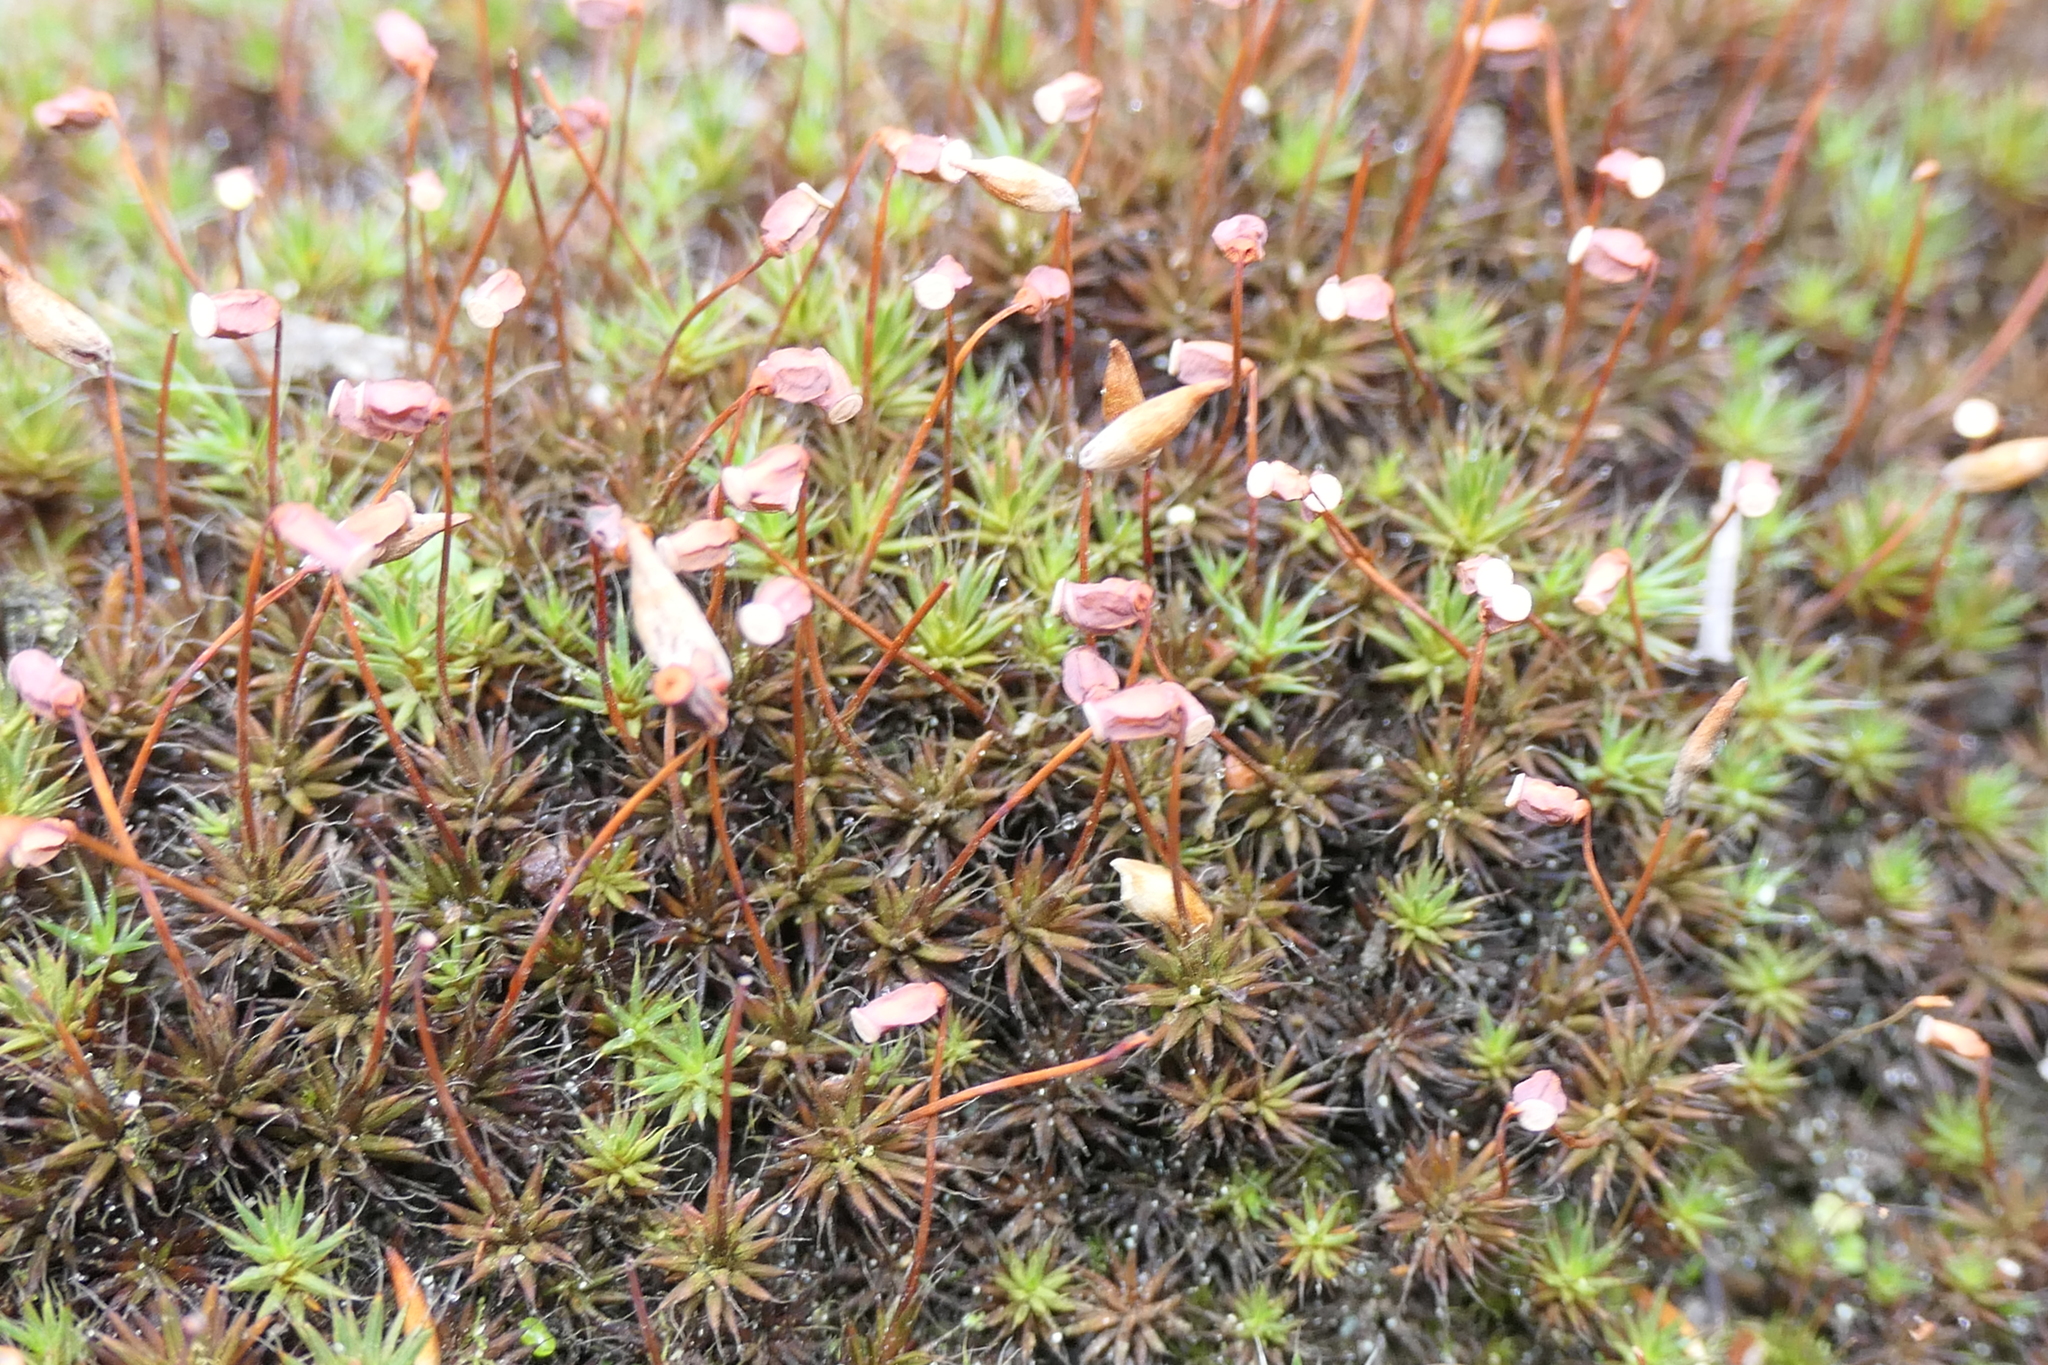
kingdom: Plantae
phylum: Bryophyta
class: Polytrichopsida
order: Polytrichales
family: Polytrichaceae
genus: Polytrichum
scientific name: Polytrichum piliferum
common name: Bristly haircap
